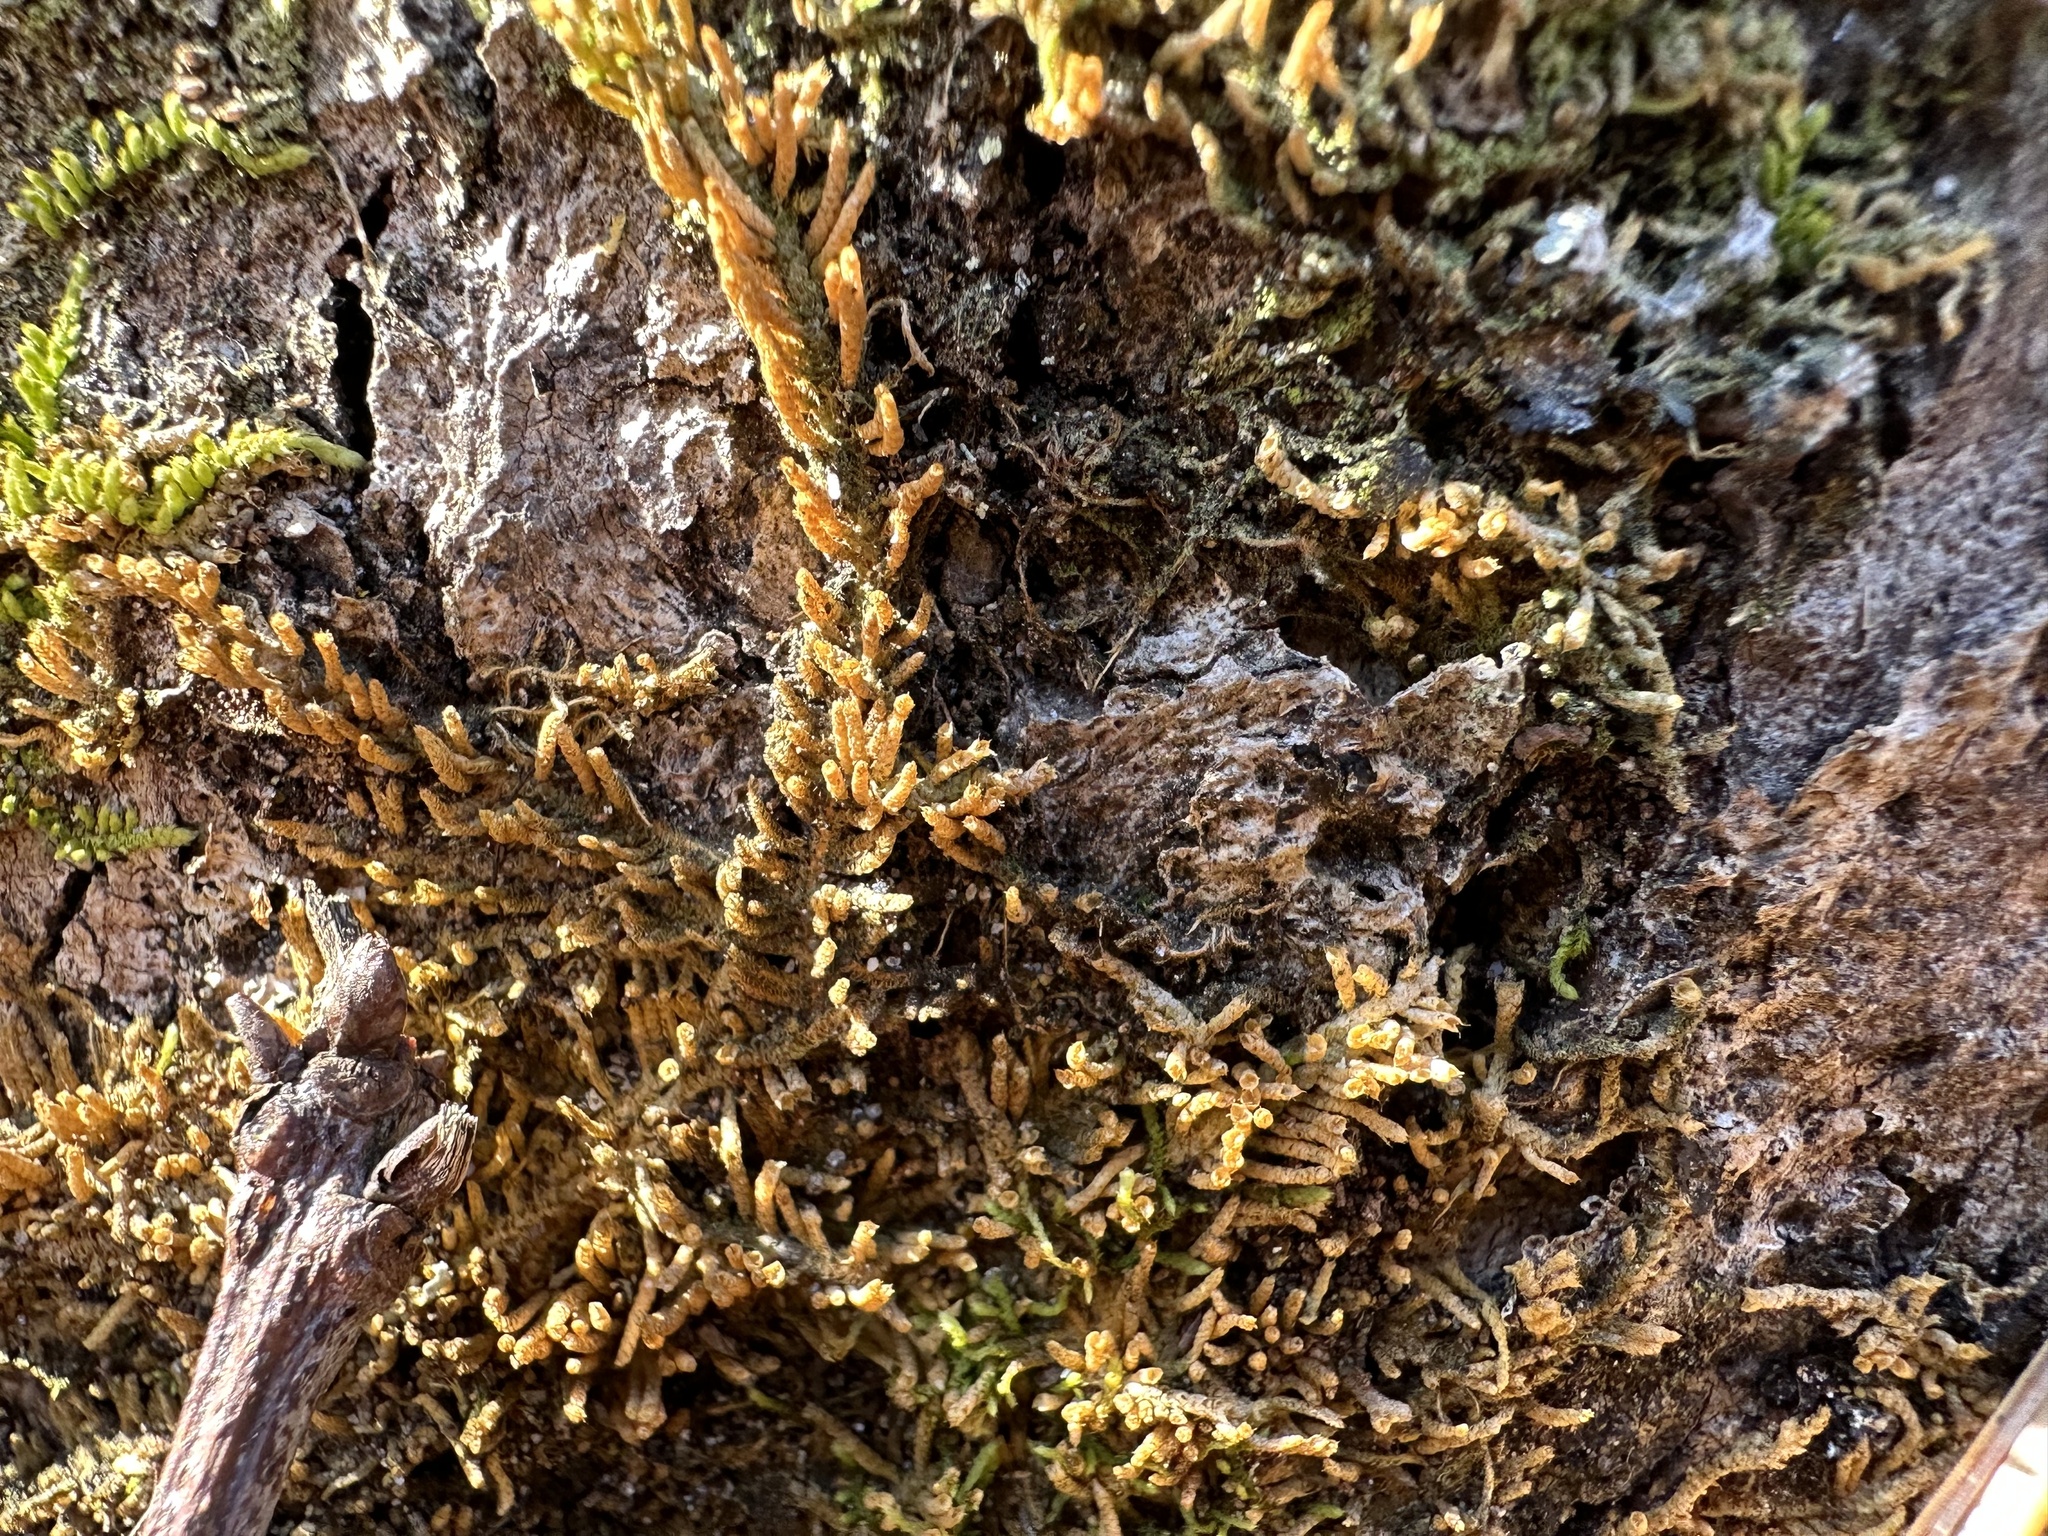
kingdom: Plantae
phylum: Bryophyta
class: Bryopsida
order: Hypnales
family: Theliaceae
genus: Thelia
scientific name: Thelia hirtella
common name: Common thelia
